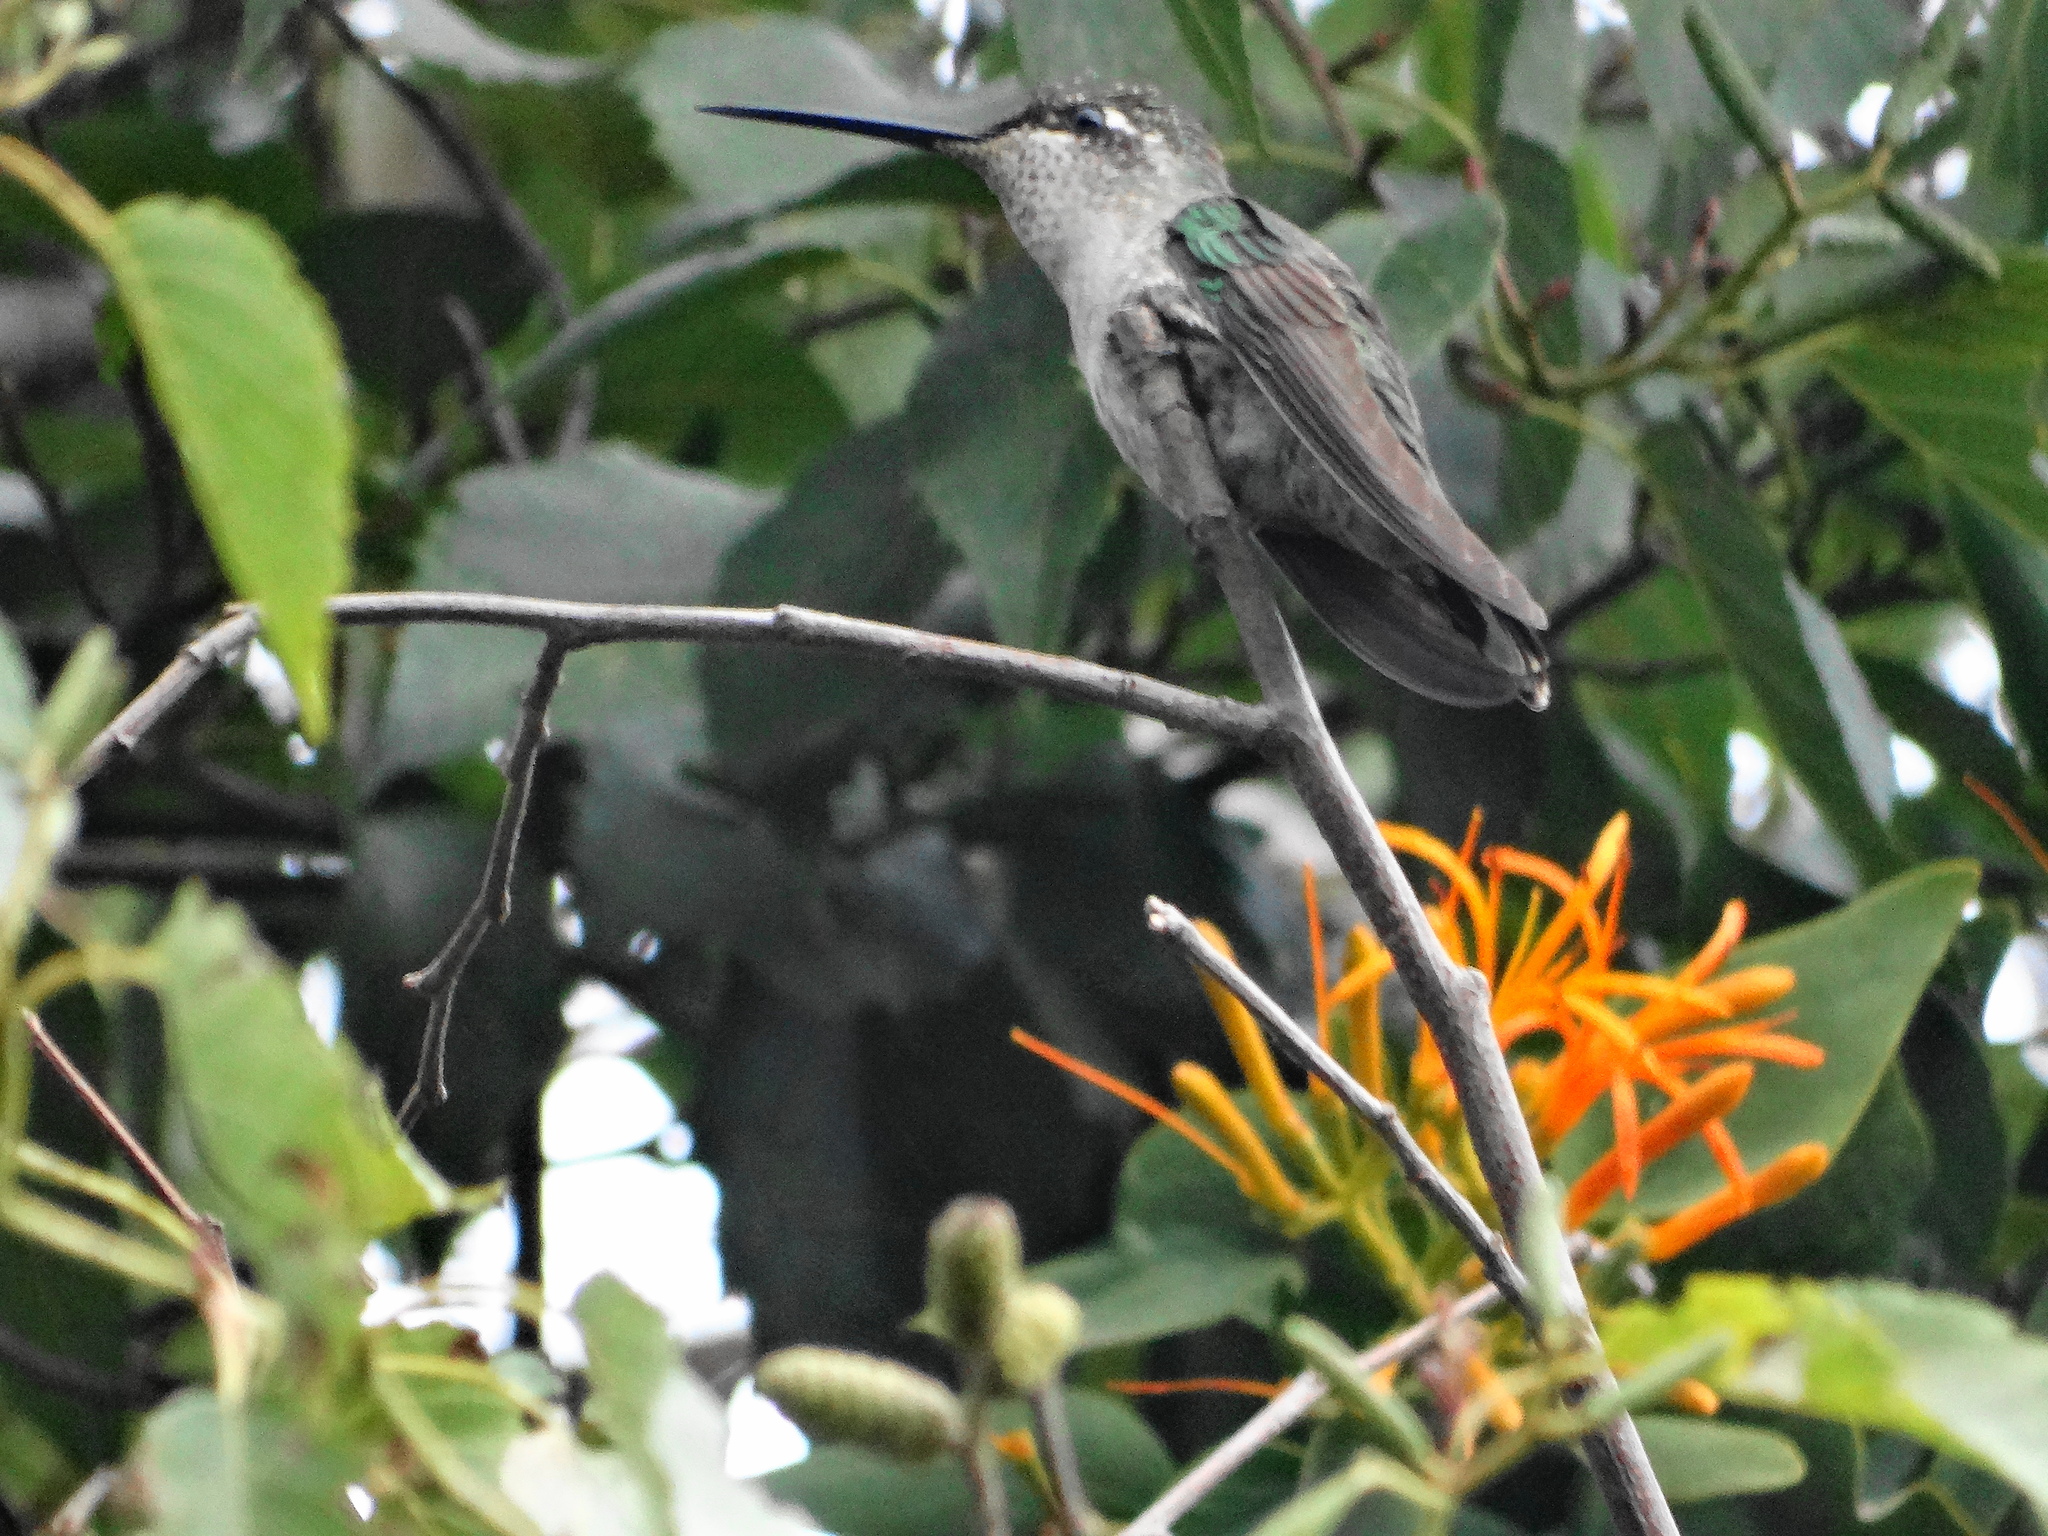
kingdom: Animalia
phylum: Chordata
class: Aves
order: Apodiformes
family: Trochilidae
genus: Archilochus
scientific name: Archilochus colubris
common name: Ruby-throated hummingbird
